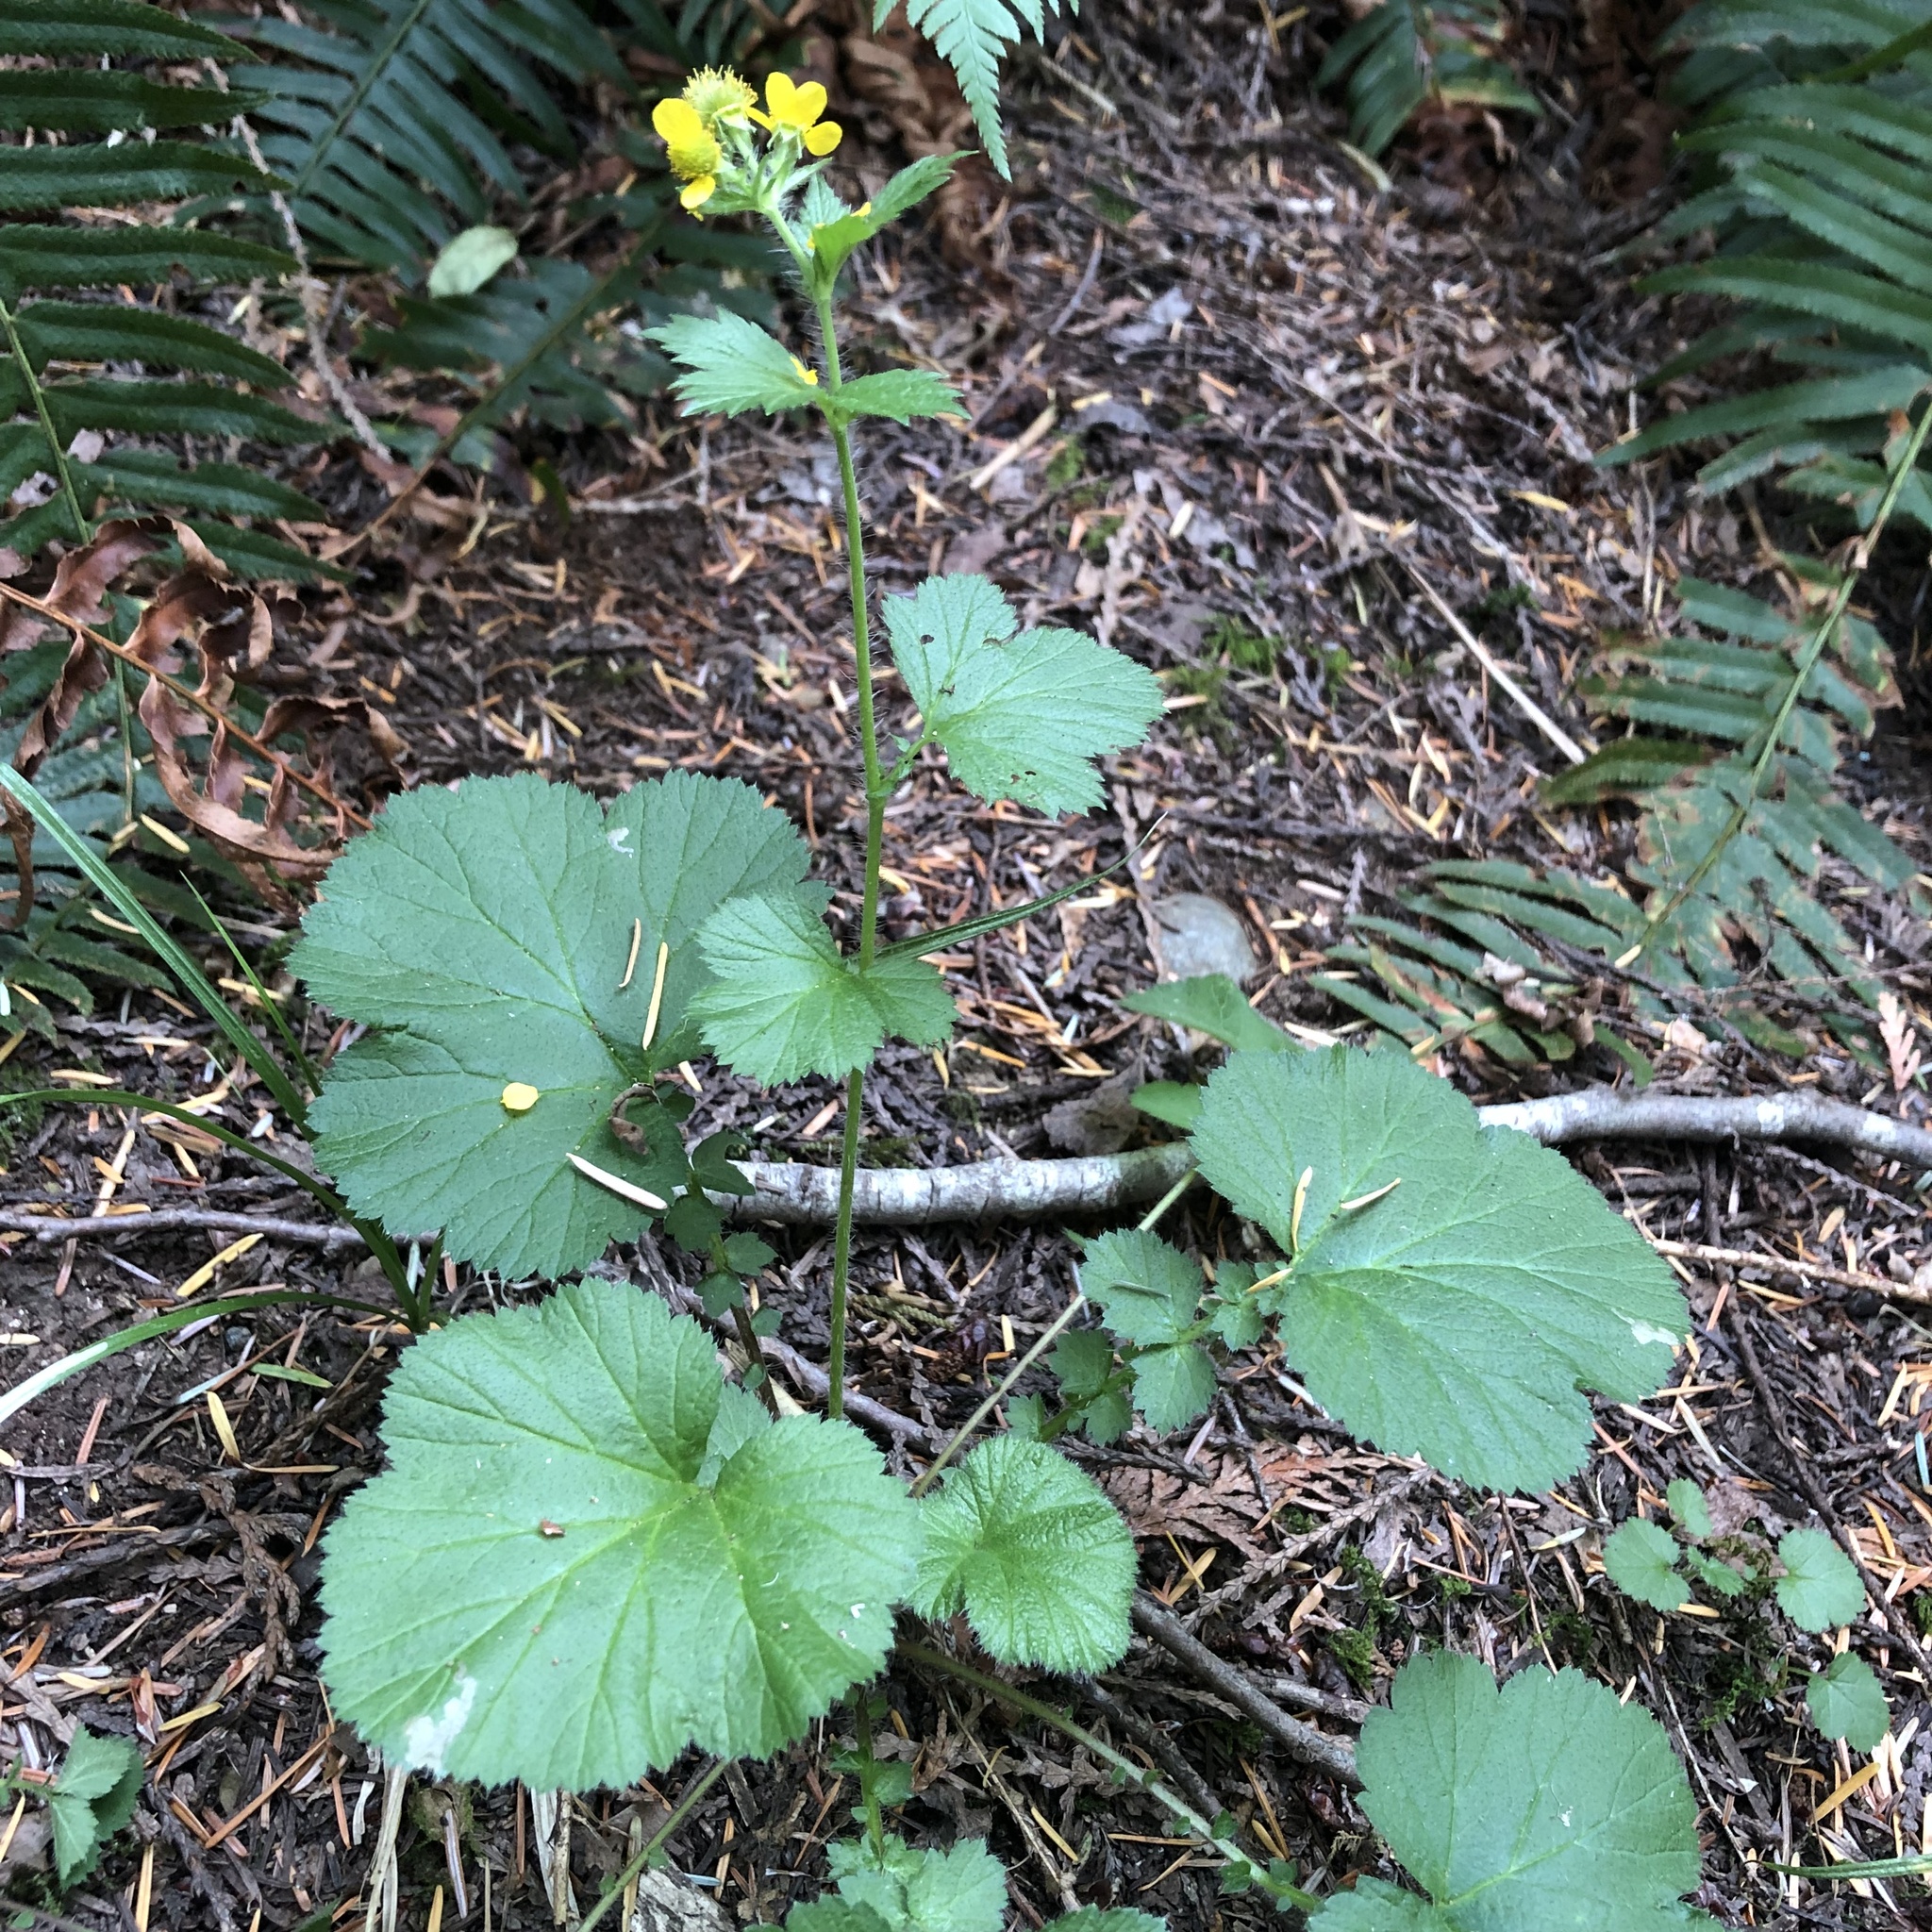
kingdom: Plantae
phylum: Tracheophyta
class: Magnoliopsida
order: Rosales
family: Rosaceae
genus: Geum
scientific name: Geum macrophyllum
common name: Large-leaved avens
